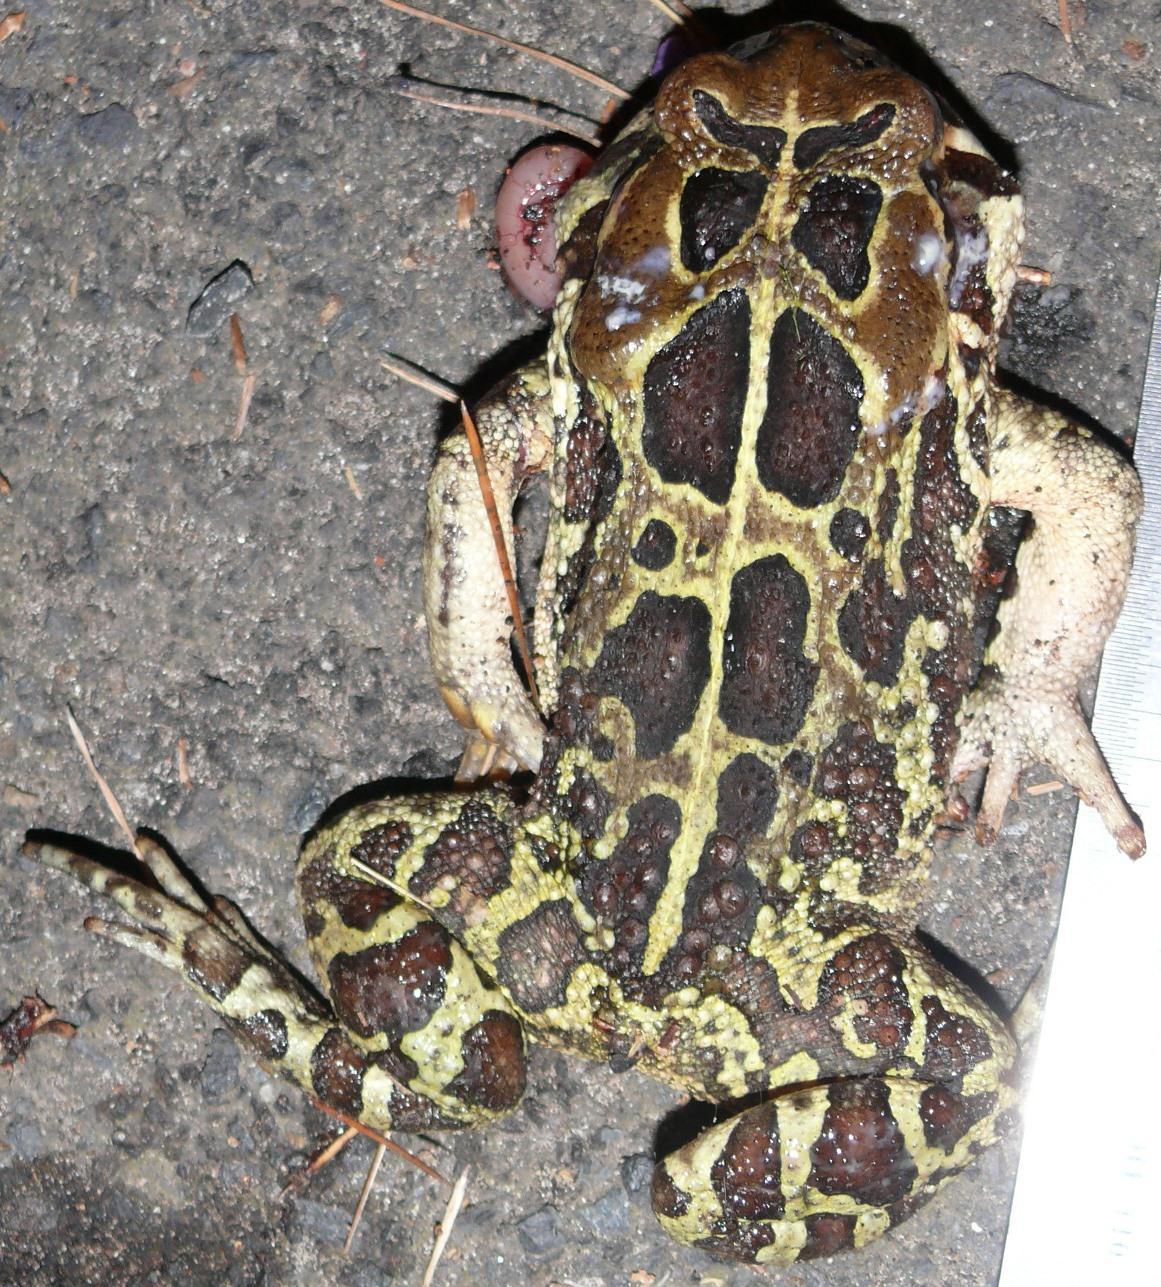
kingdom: Animalia
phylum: Chordata
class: Amphibia
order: Anura
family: Bufonidae
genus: Sclerophrys
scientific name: Sclerophrys pantherina
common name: Panther toad
